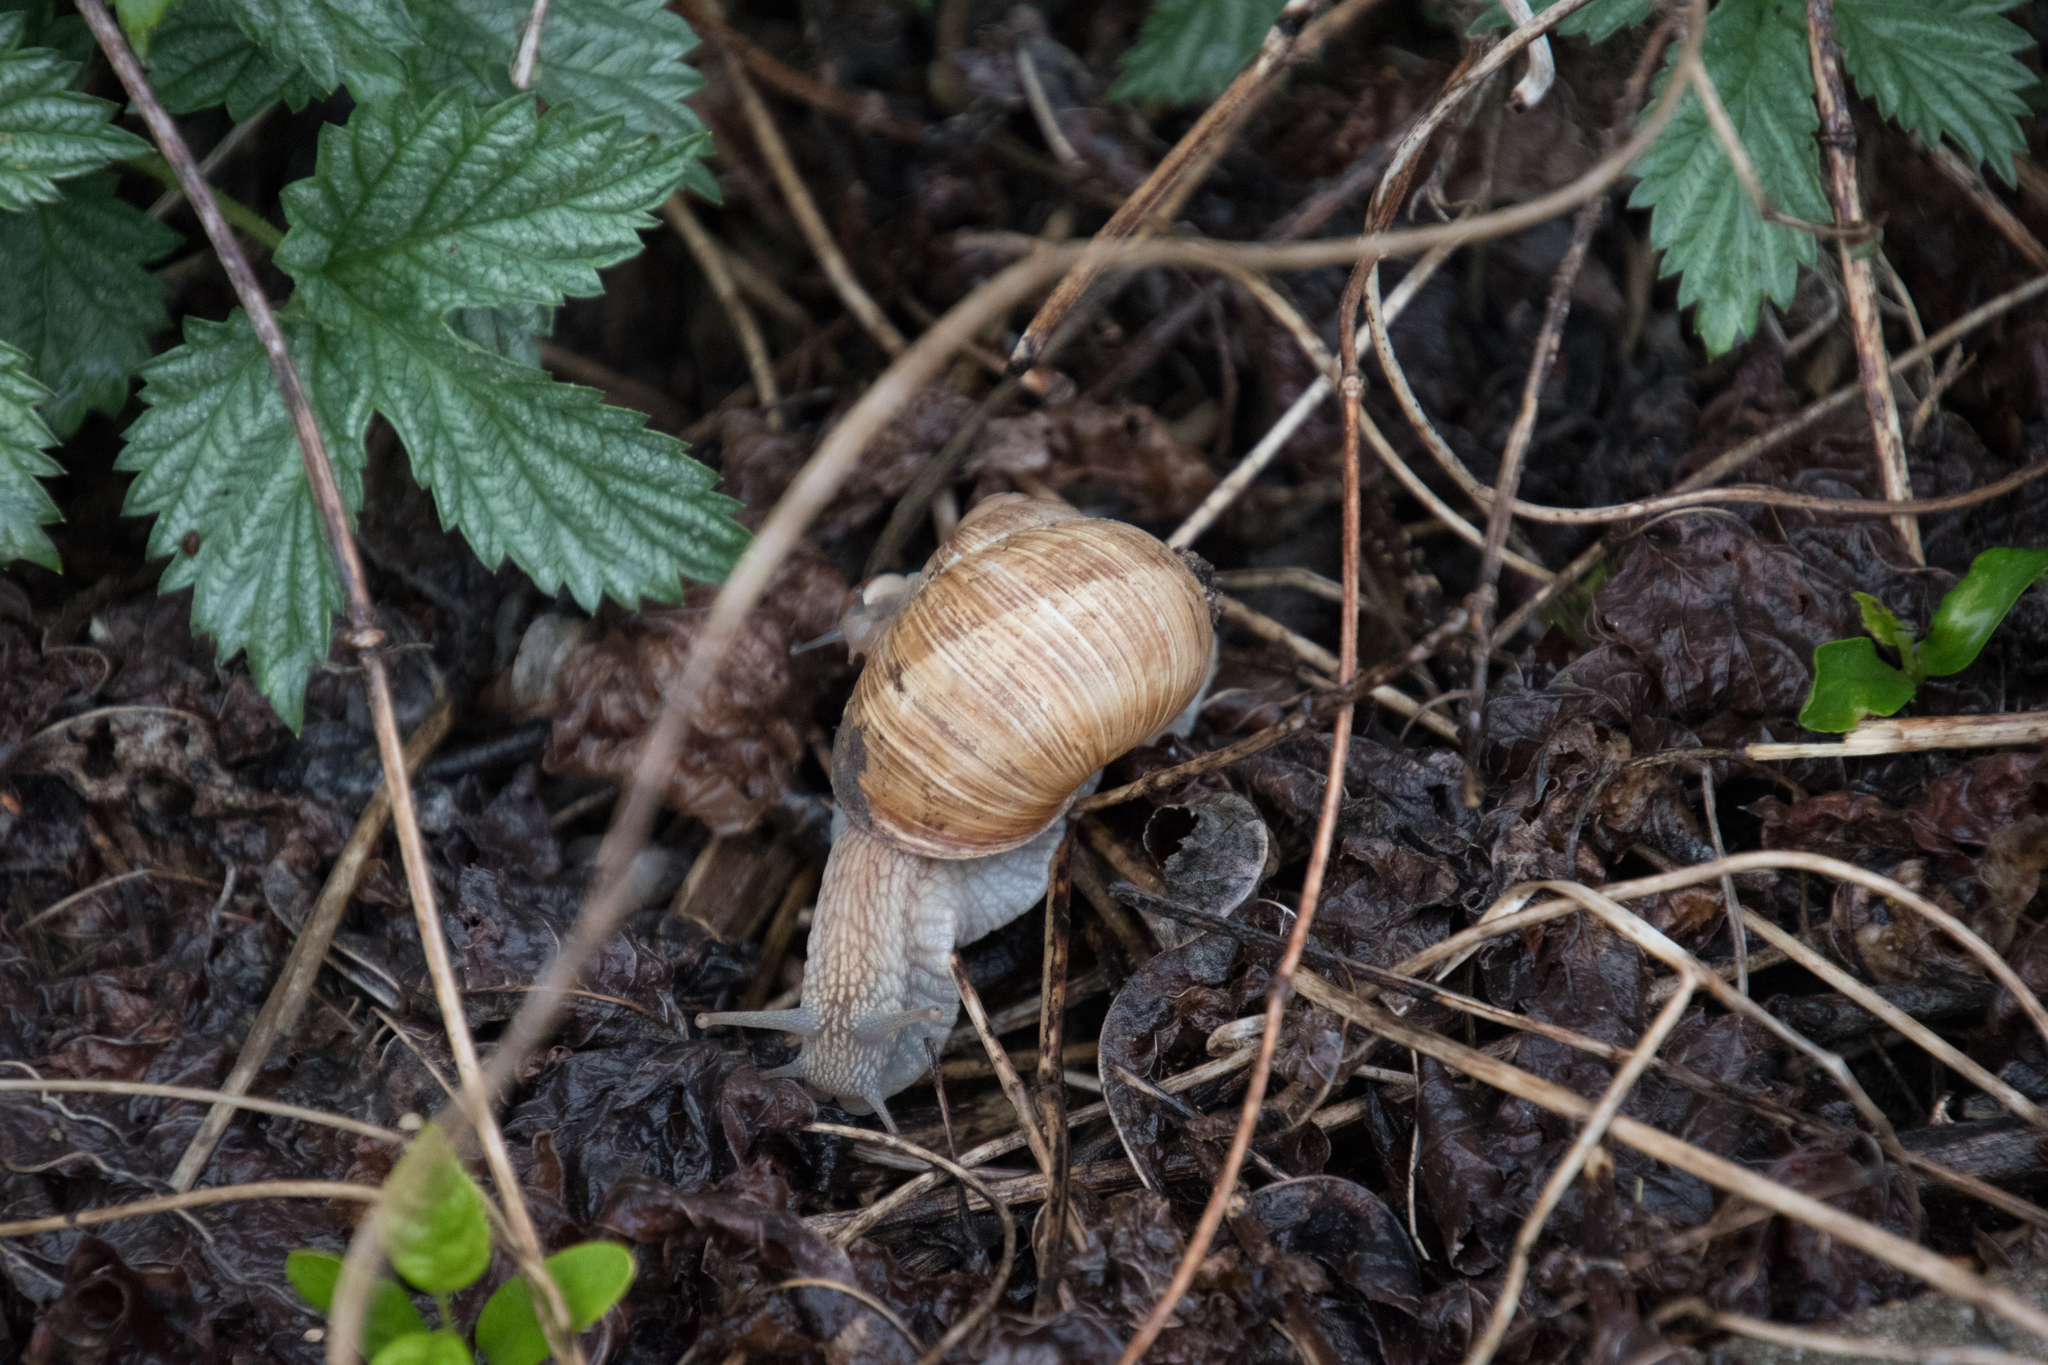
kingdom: Animalia
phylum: Mollusca
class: Gastropoda
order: Stylommatophora
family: Helicidae
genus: Helix
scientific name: Helix pomatia
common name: Roman snail
